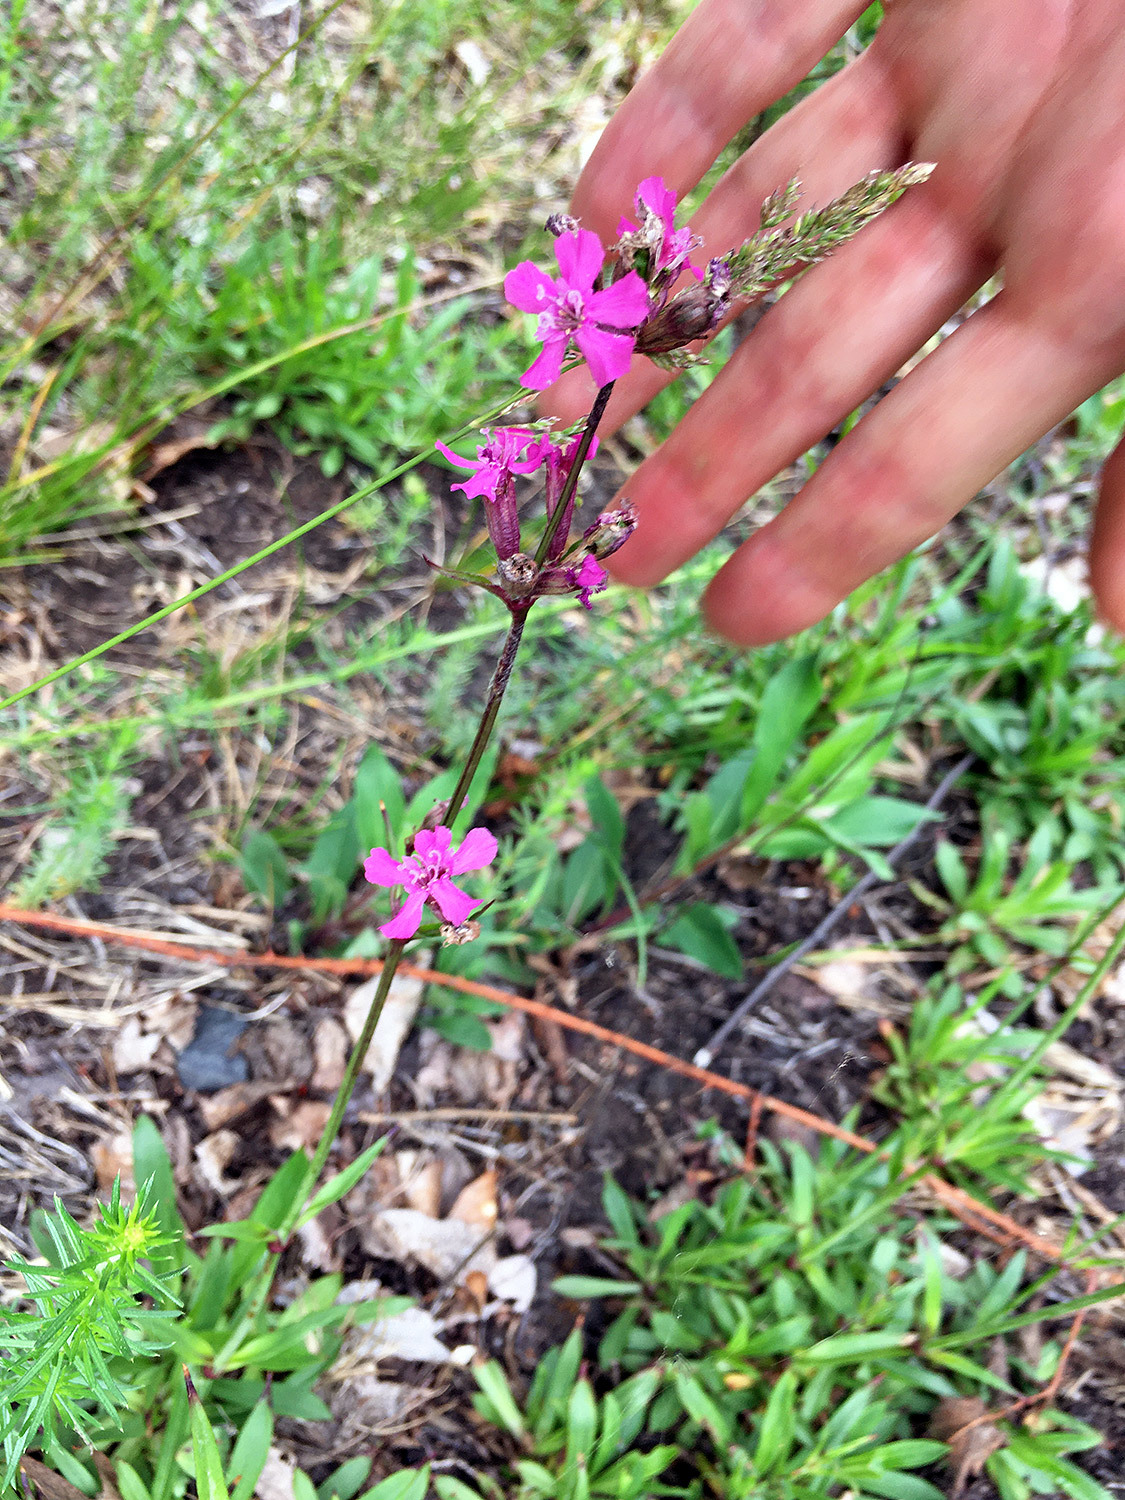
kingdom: Plantae
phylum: Tracheophyta
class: Magnoliopsida
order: Caryophyllales
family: Caryophyllaceae
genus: Viscaria
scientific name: Viscaria vulgaris
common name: Clammy campion
